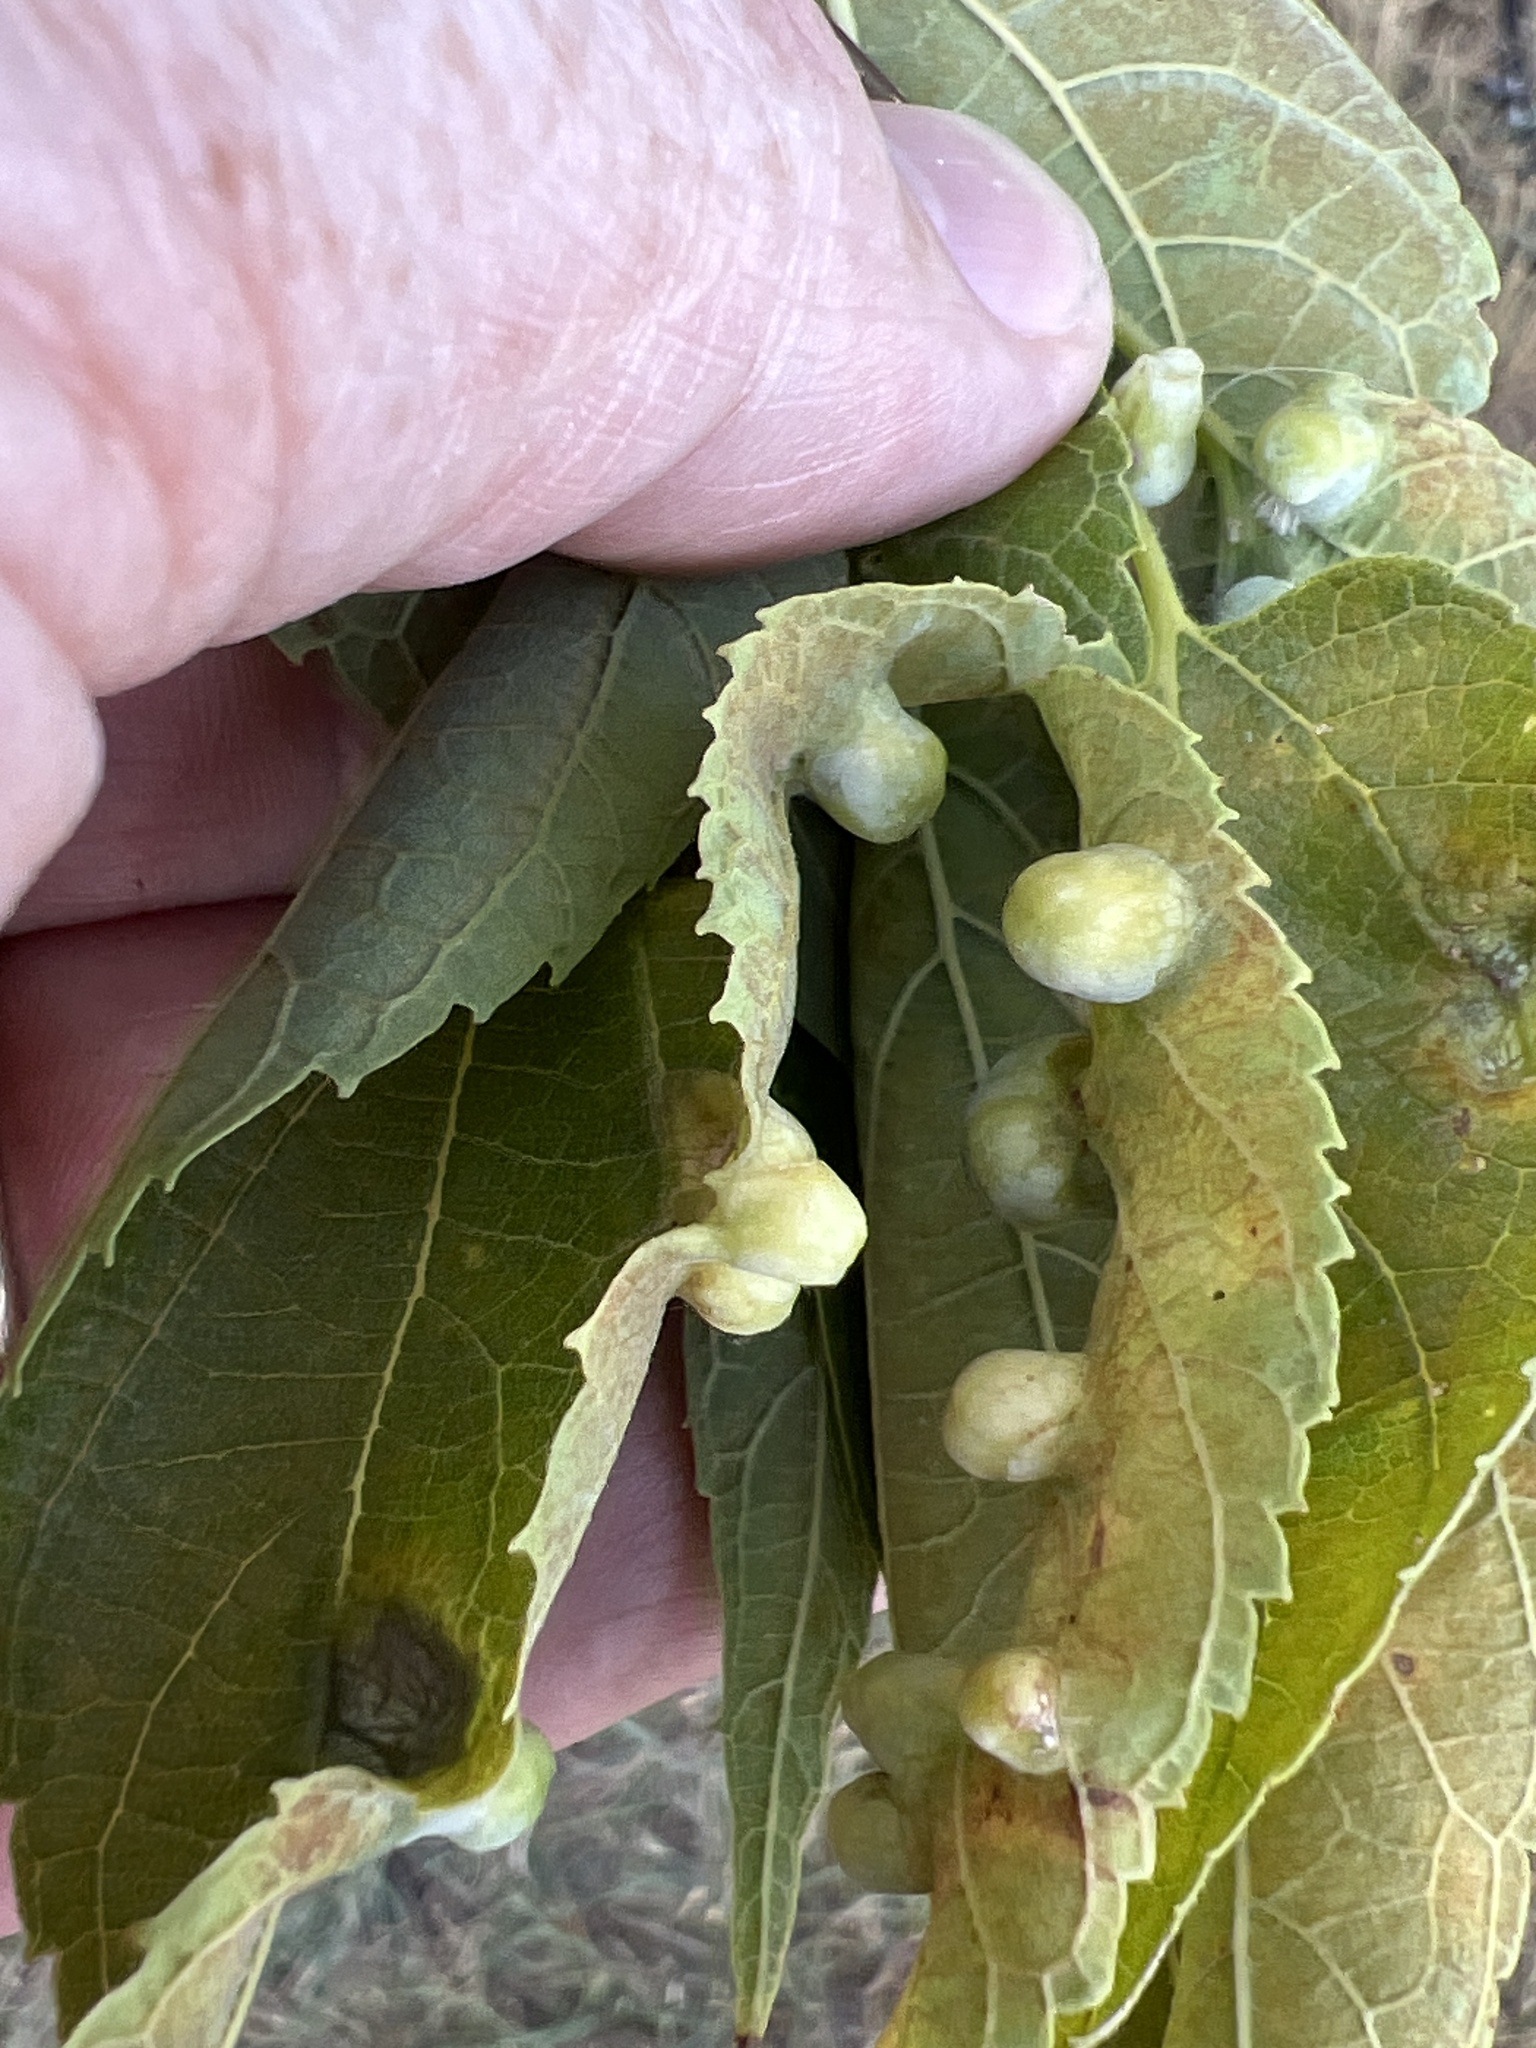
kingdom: Animalia
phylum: Arthropoda
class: Insecta
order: Hemiptera
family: Aphalaridae
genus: Pachypsylla
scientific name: Pachypsylla celtidismamma
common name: Hackberry nipplegall psyllid
